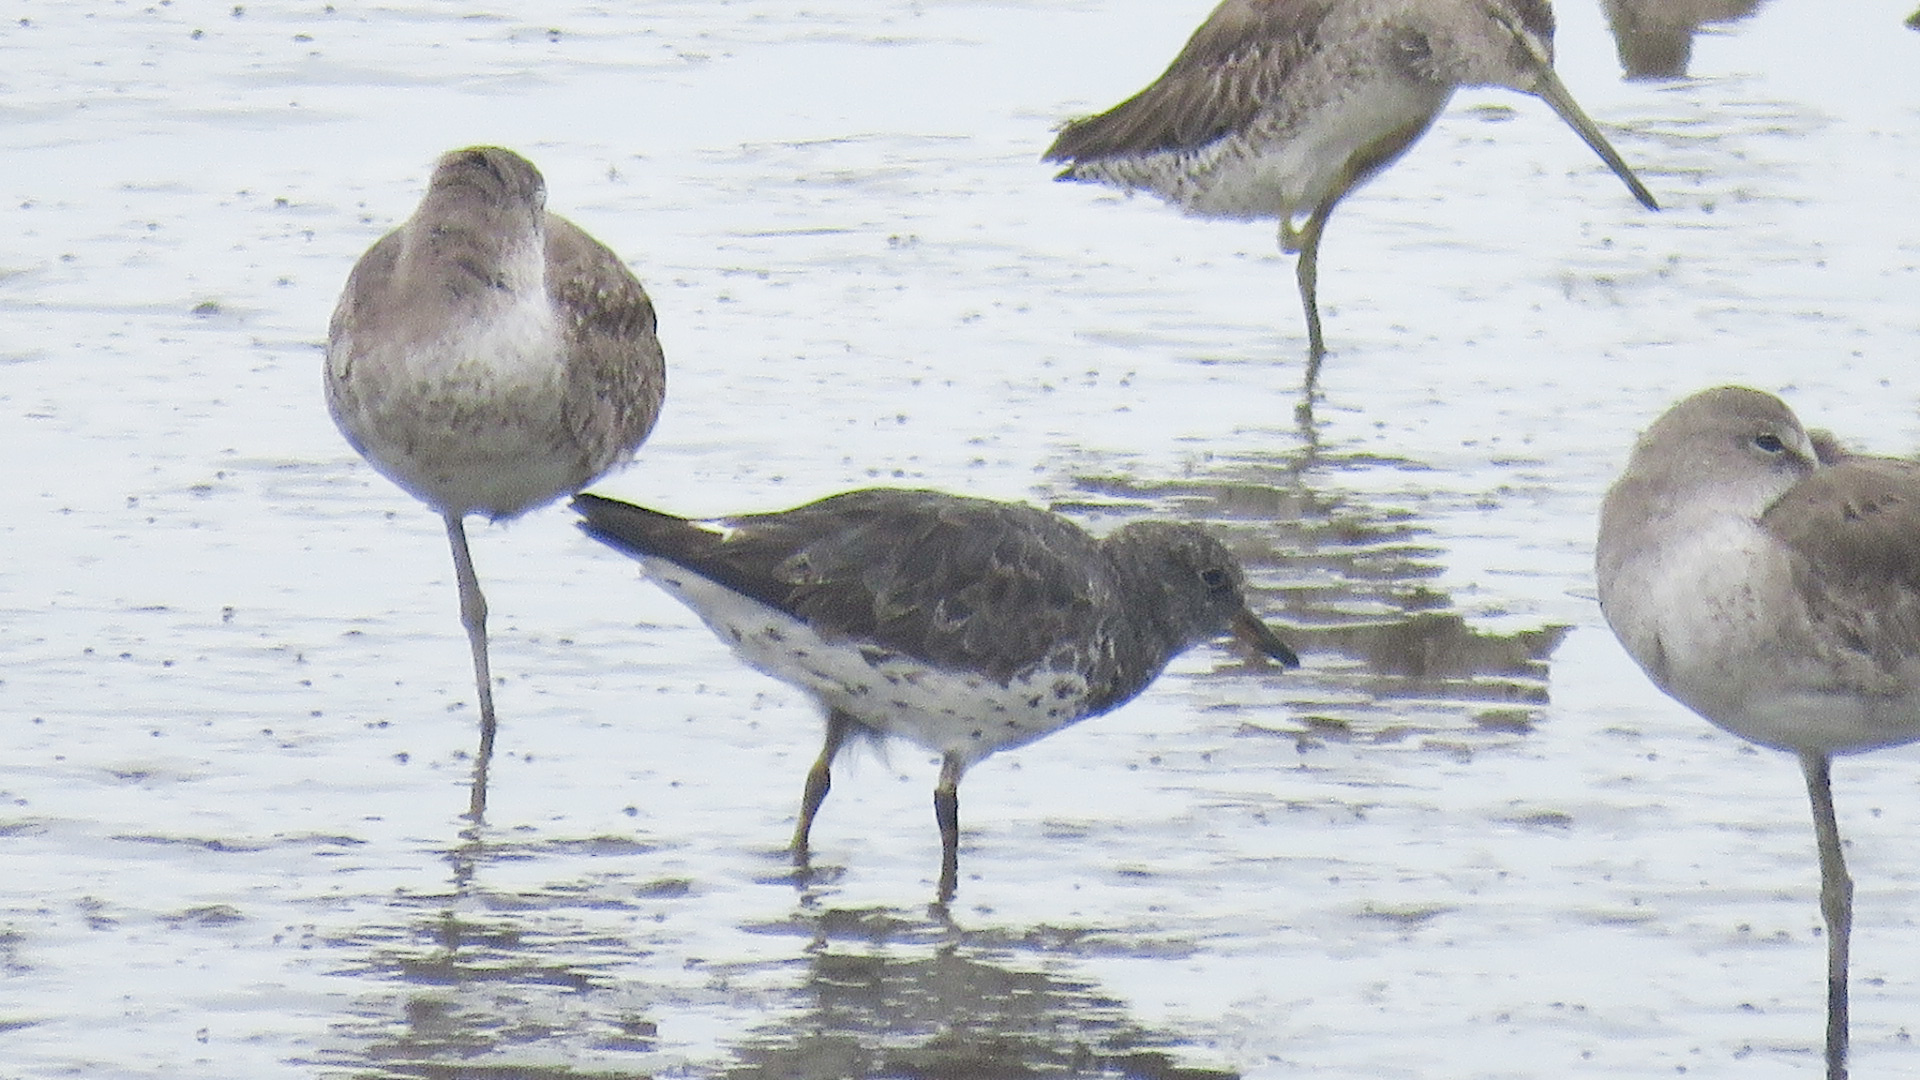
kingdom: Animalia
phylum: Chordata
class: Aves
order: Charadriiformes
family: Scolopacidae
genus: Calidris
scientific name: Calidris virgata
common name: Surfbird
